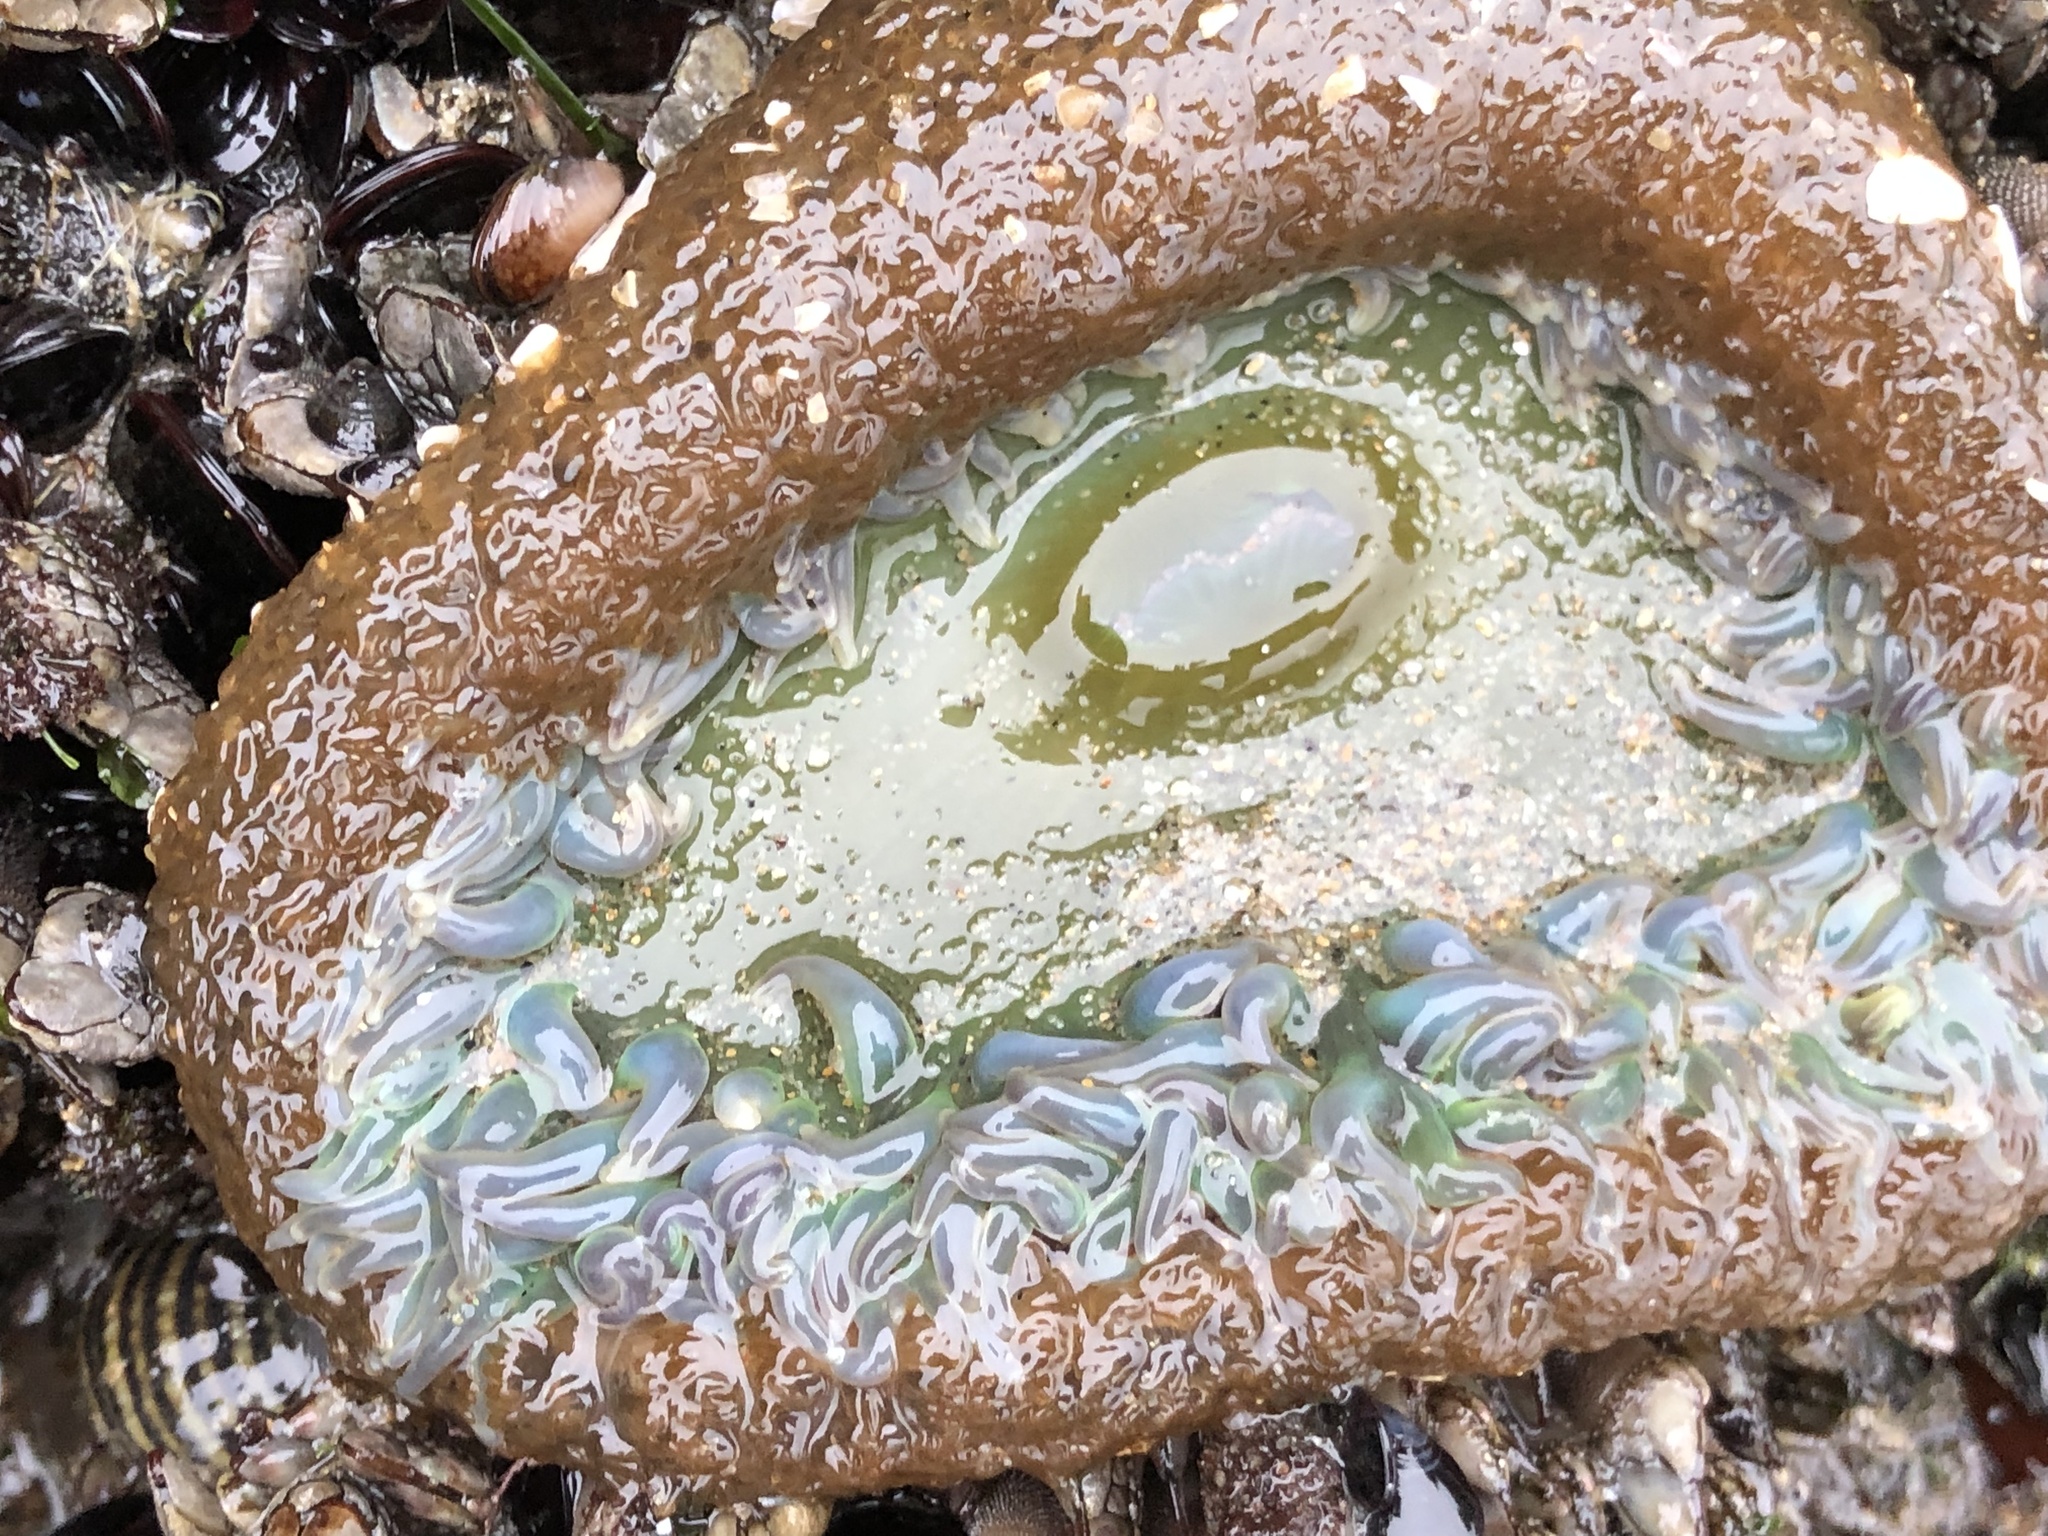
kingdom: Animalia
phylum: Cnidaria
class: Anthozoa
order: Actiniaria
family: Actiniidae
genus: Anthopleura
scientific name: Anthopleura xanthogrammica
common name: Giant green anemone
